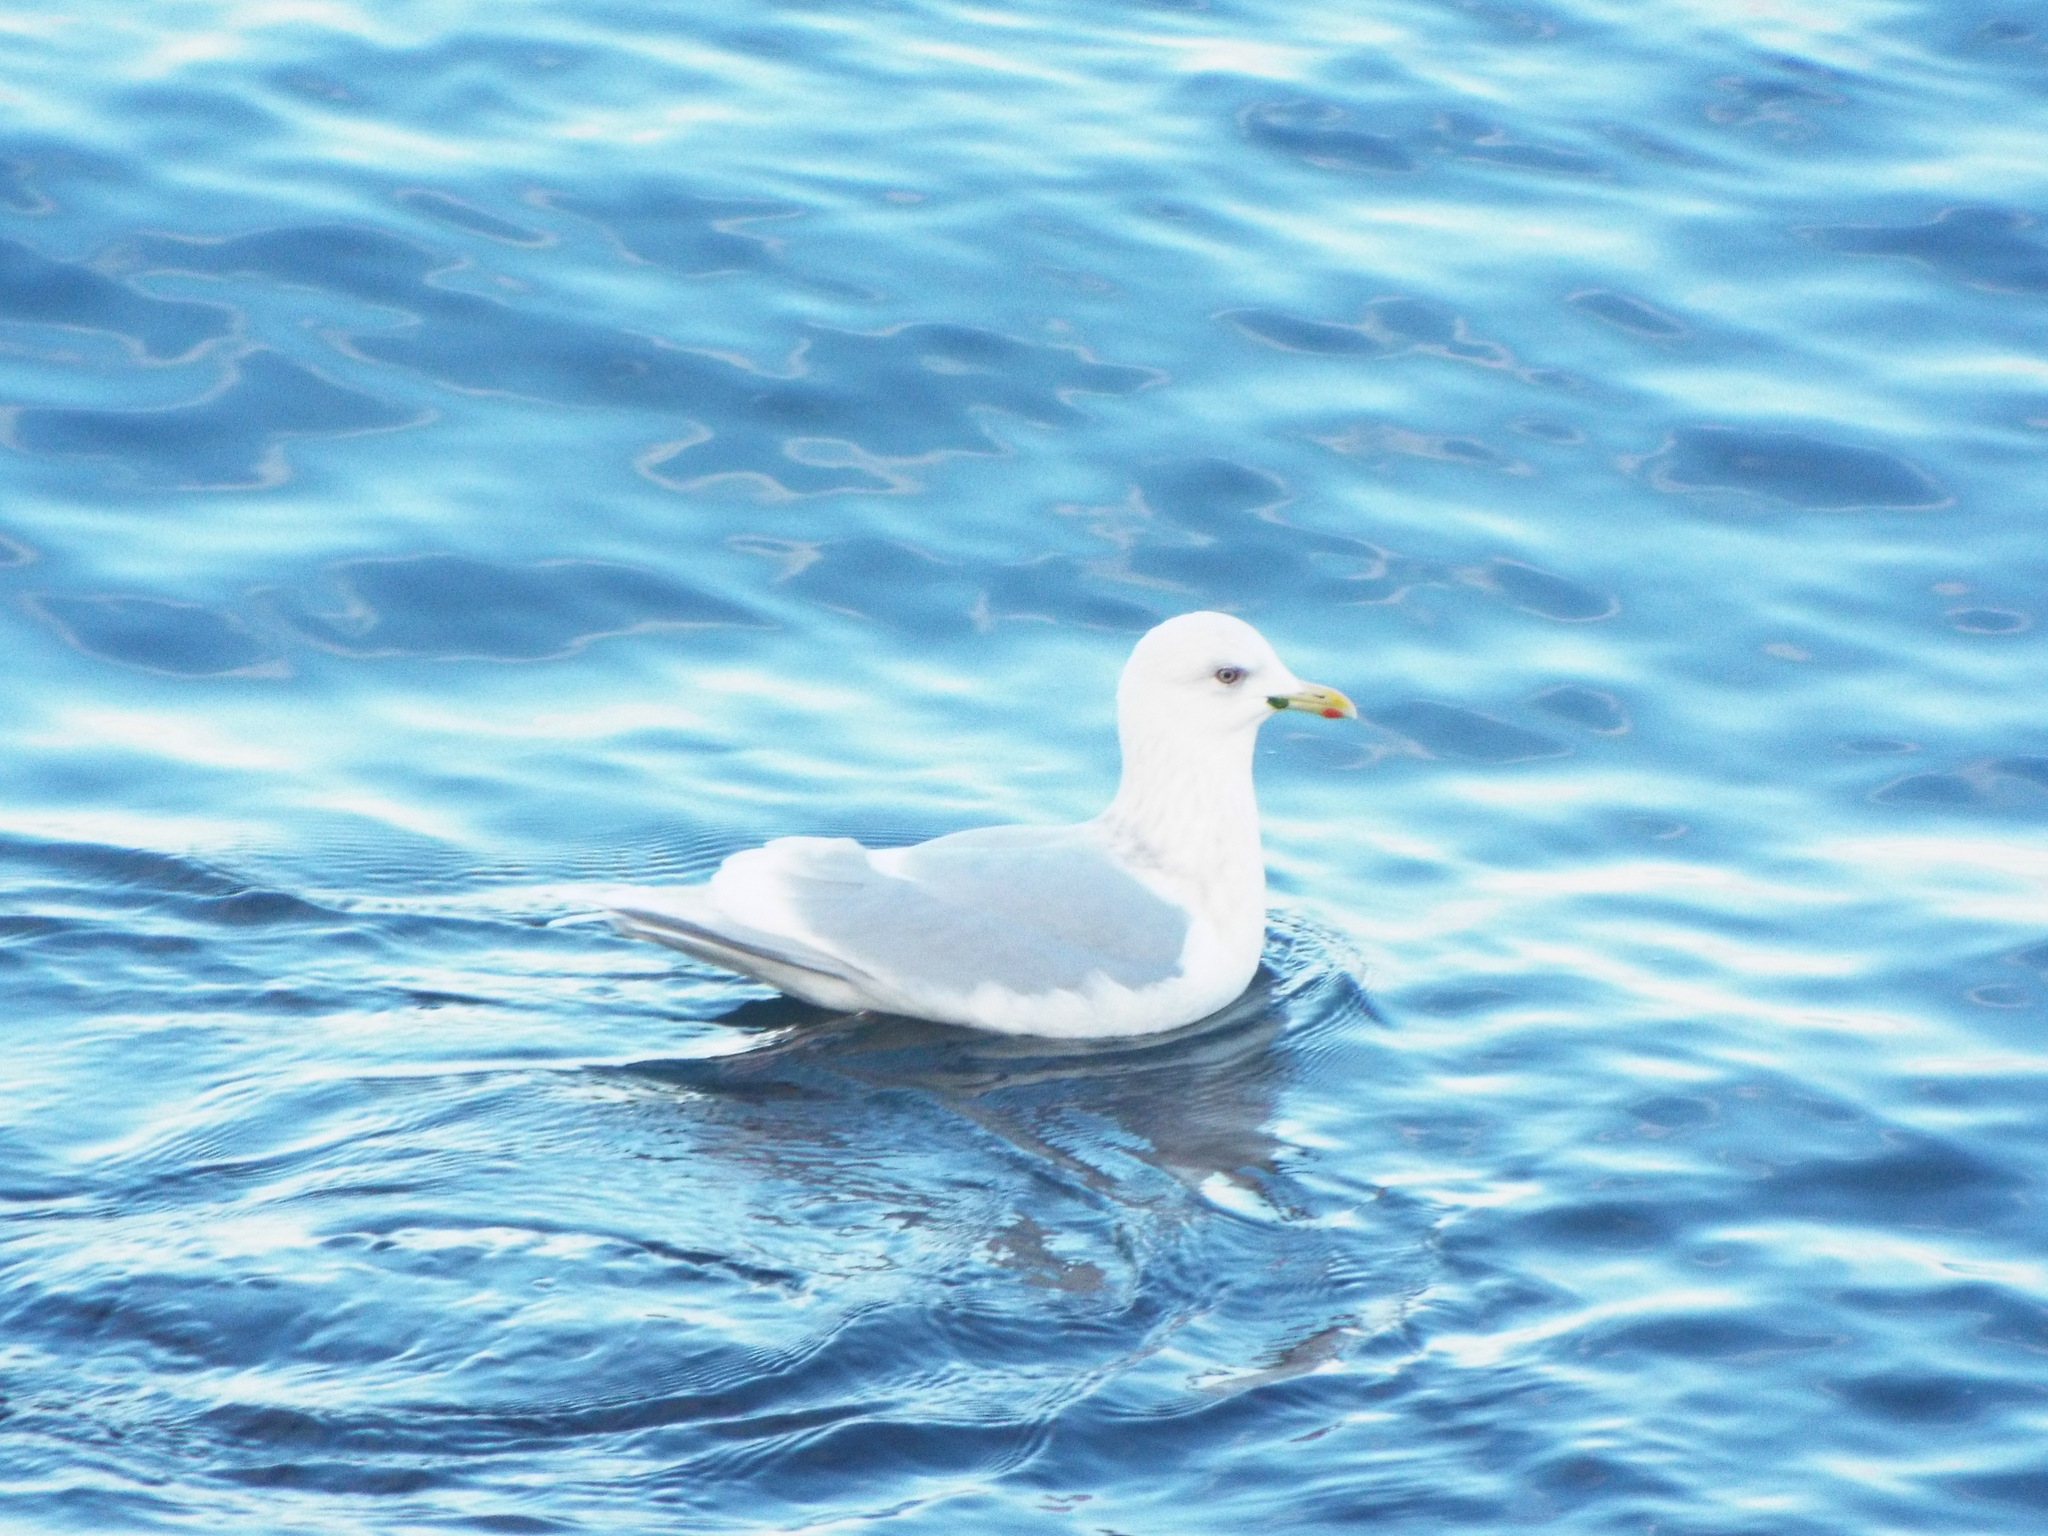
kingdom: Animalia
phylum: Chordata
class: Aves
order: Charadriiformes
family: Laridae
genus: Larus
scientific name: Larus glaucoides
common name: Iceland gull
